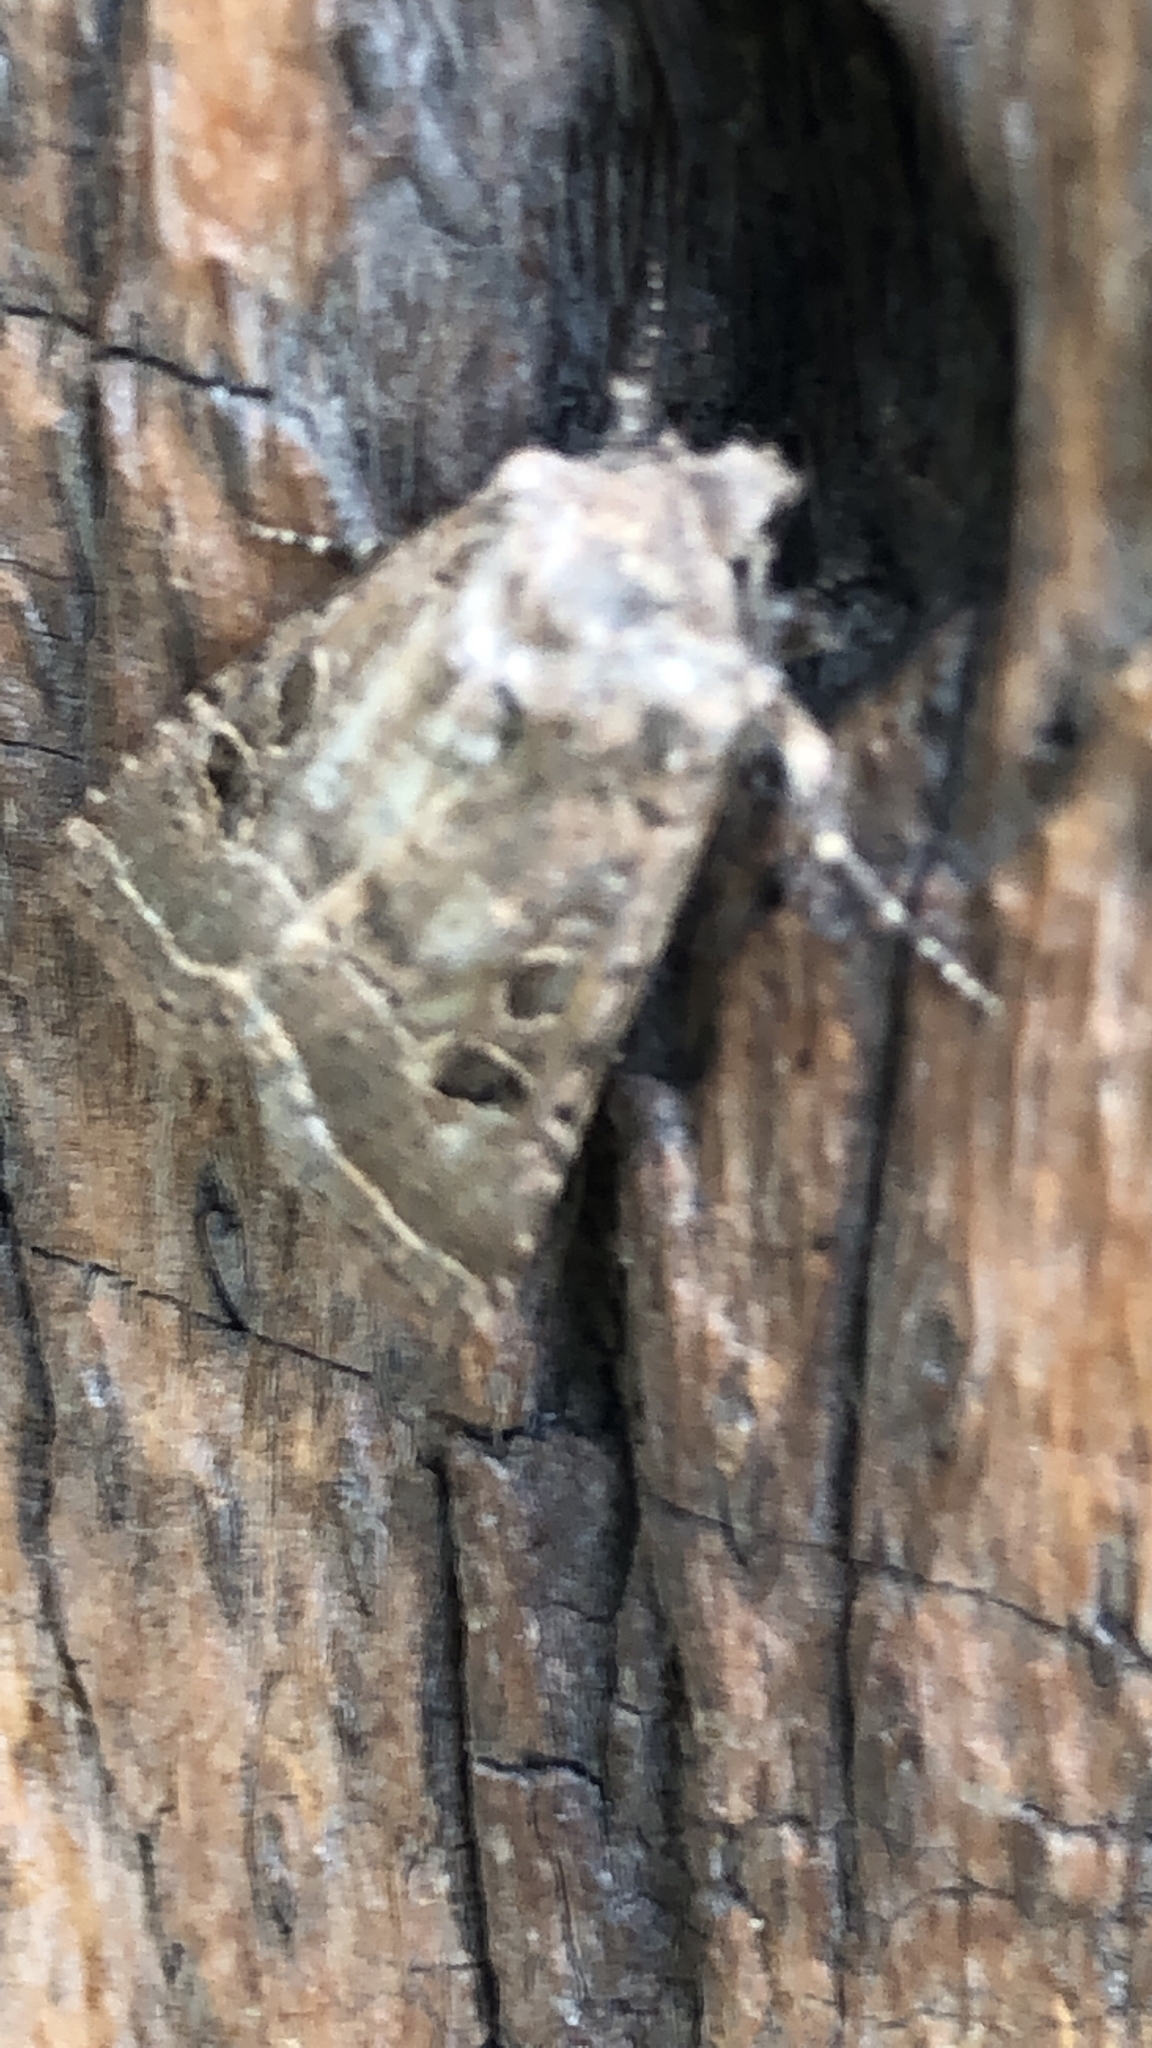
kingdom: Animalia
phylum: Arthropoda
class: Insecta
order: Lepidoptera
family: Noctuidae
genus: Trichopolia
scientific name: Trichopolia
